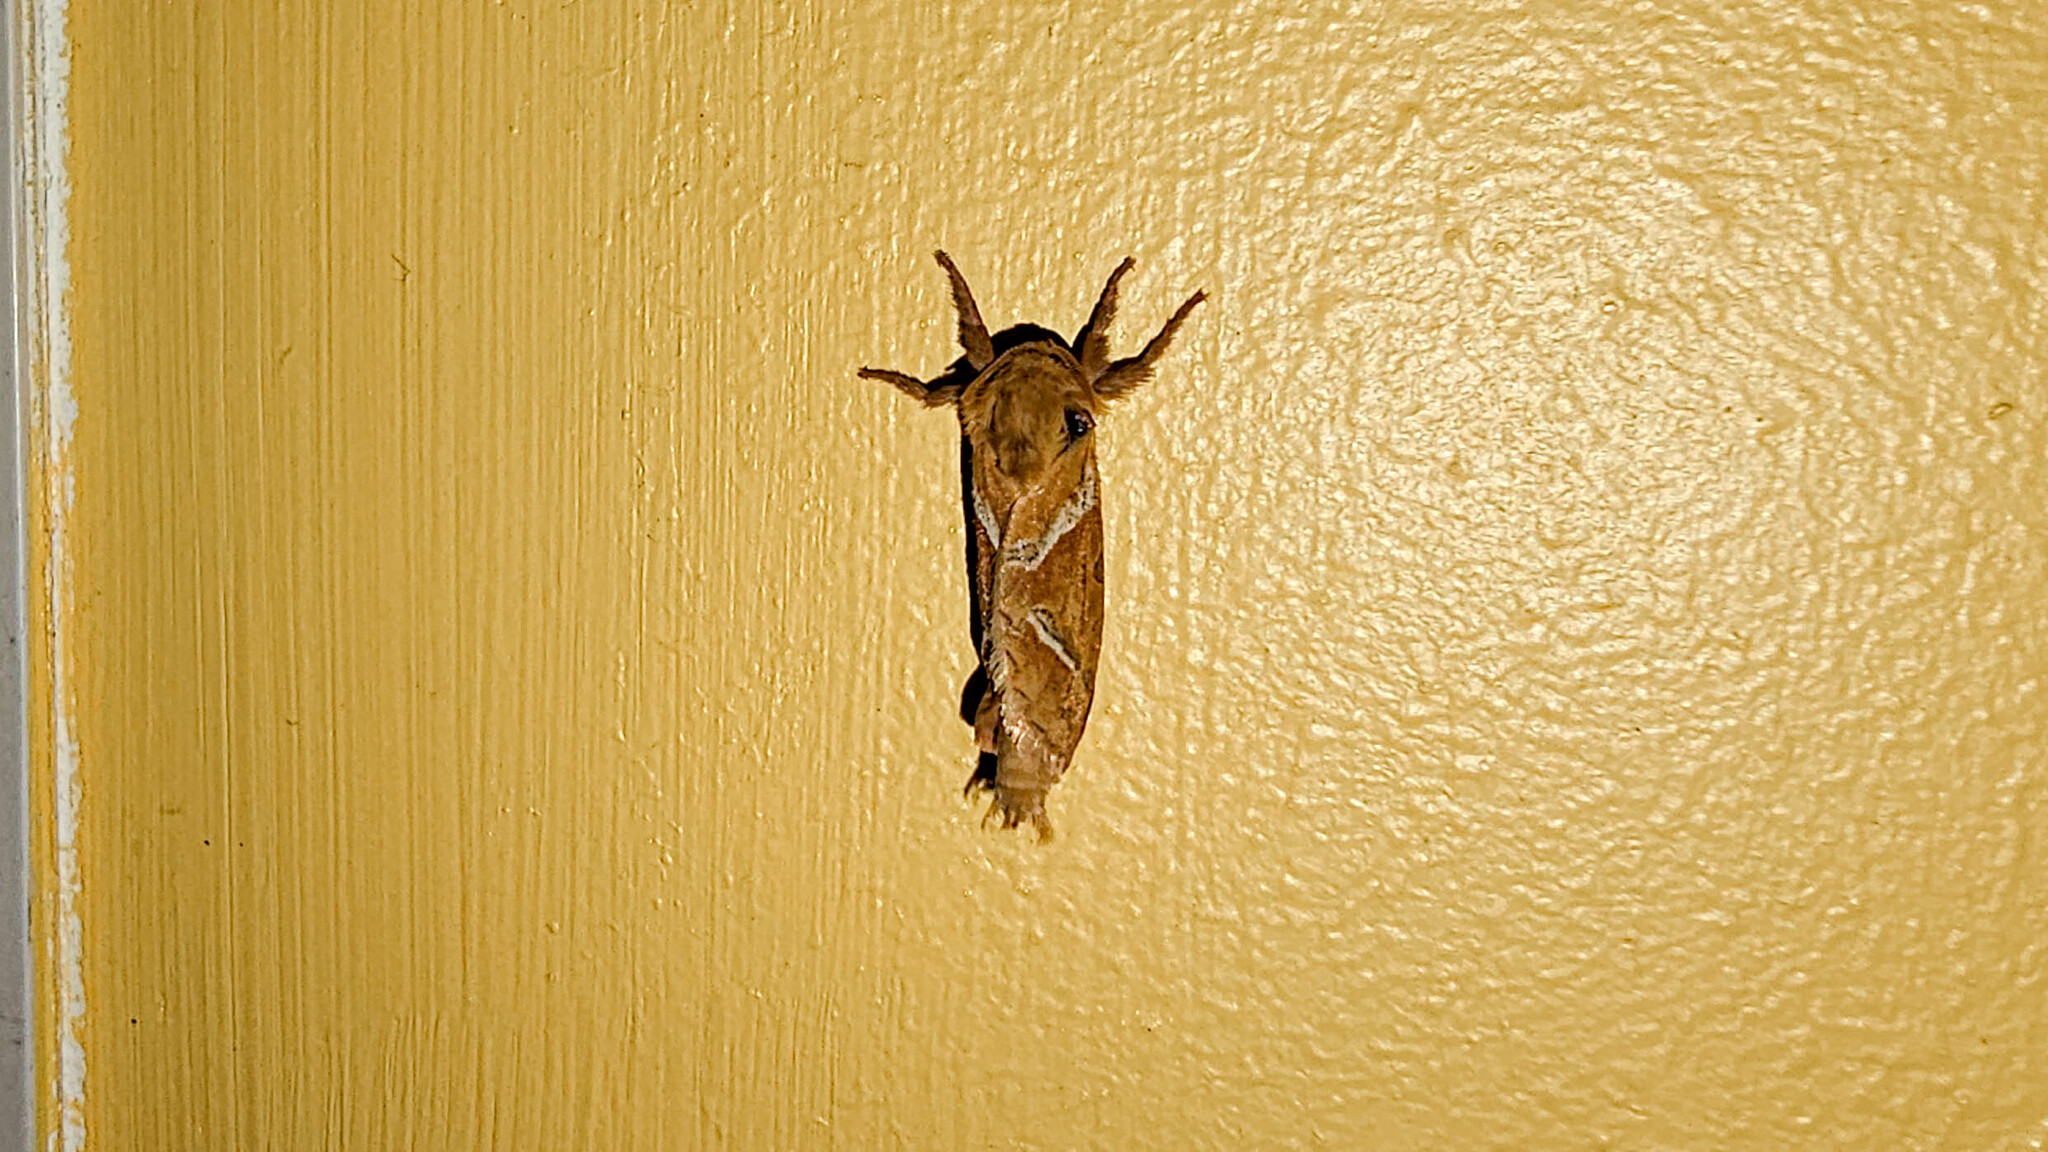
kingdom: Animalia
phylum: Arthropoda
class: Insecta
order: Lepidoptera
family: Hepialidae
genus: Triodia
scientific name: Triodia sylvina
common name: Orange swift
